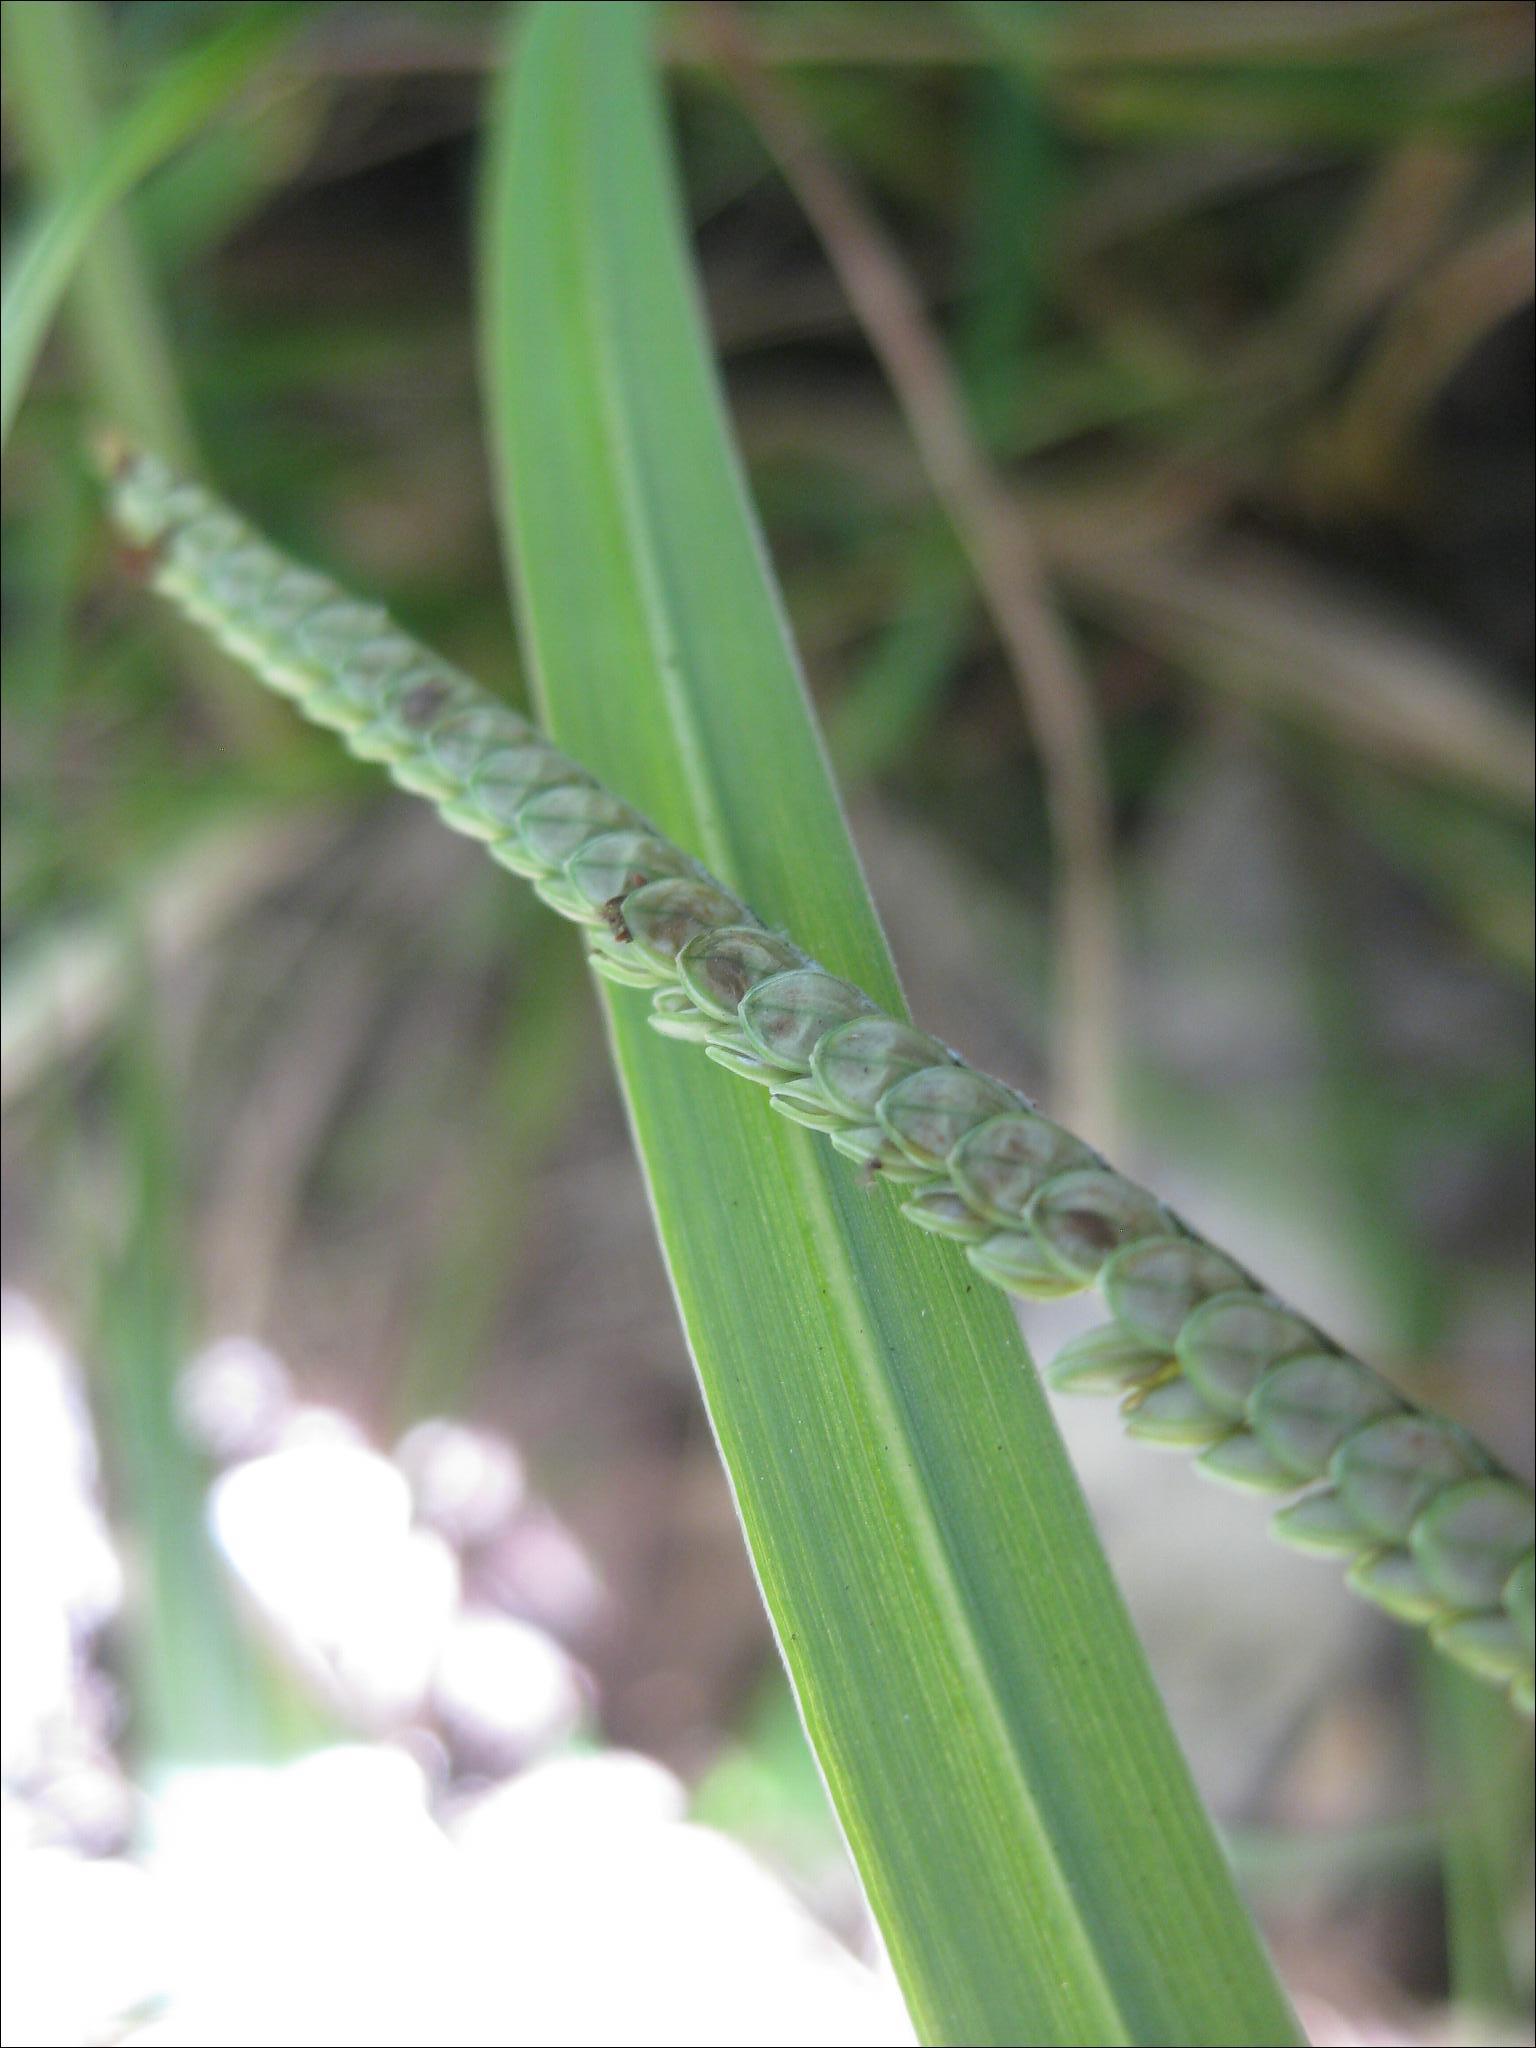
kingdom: Plantae
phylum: Tracheophyta
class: Liliopsida
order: Poales
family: Poaceae
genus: Paspalum
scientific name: Paspalum scrobiculatum
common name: Kodo millet
